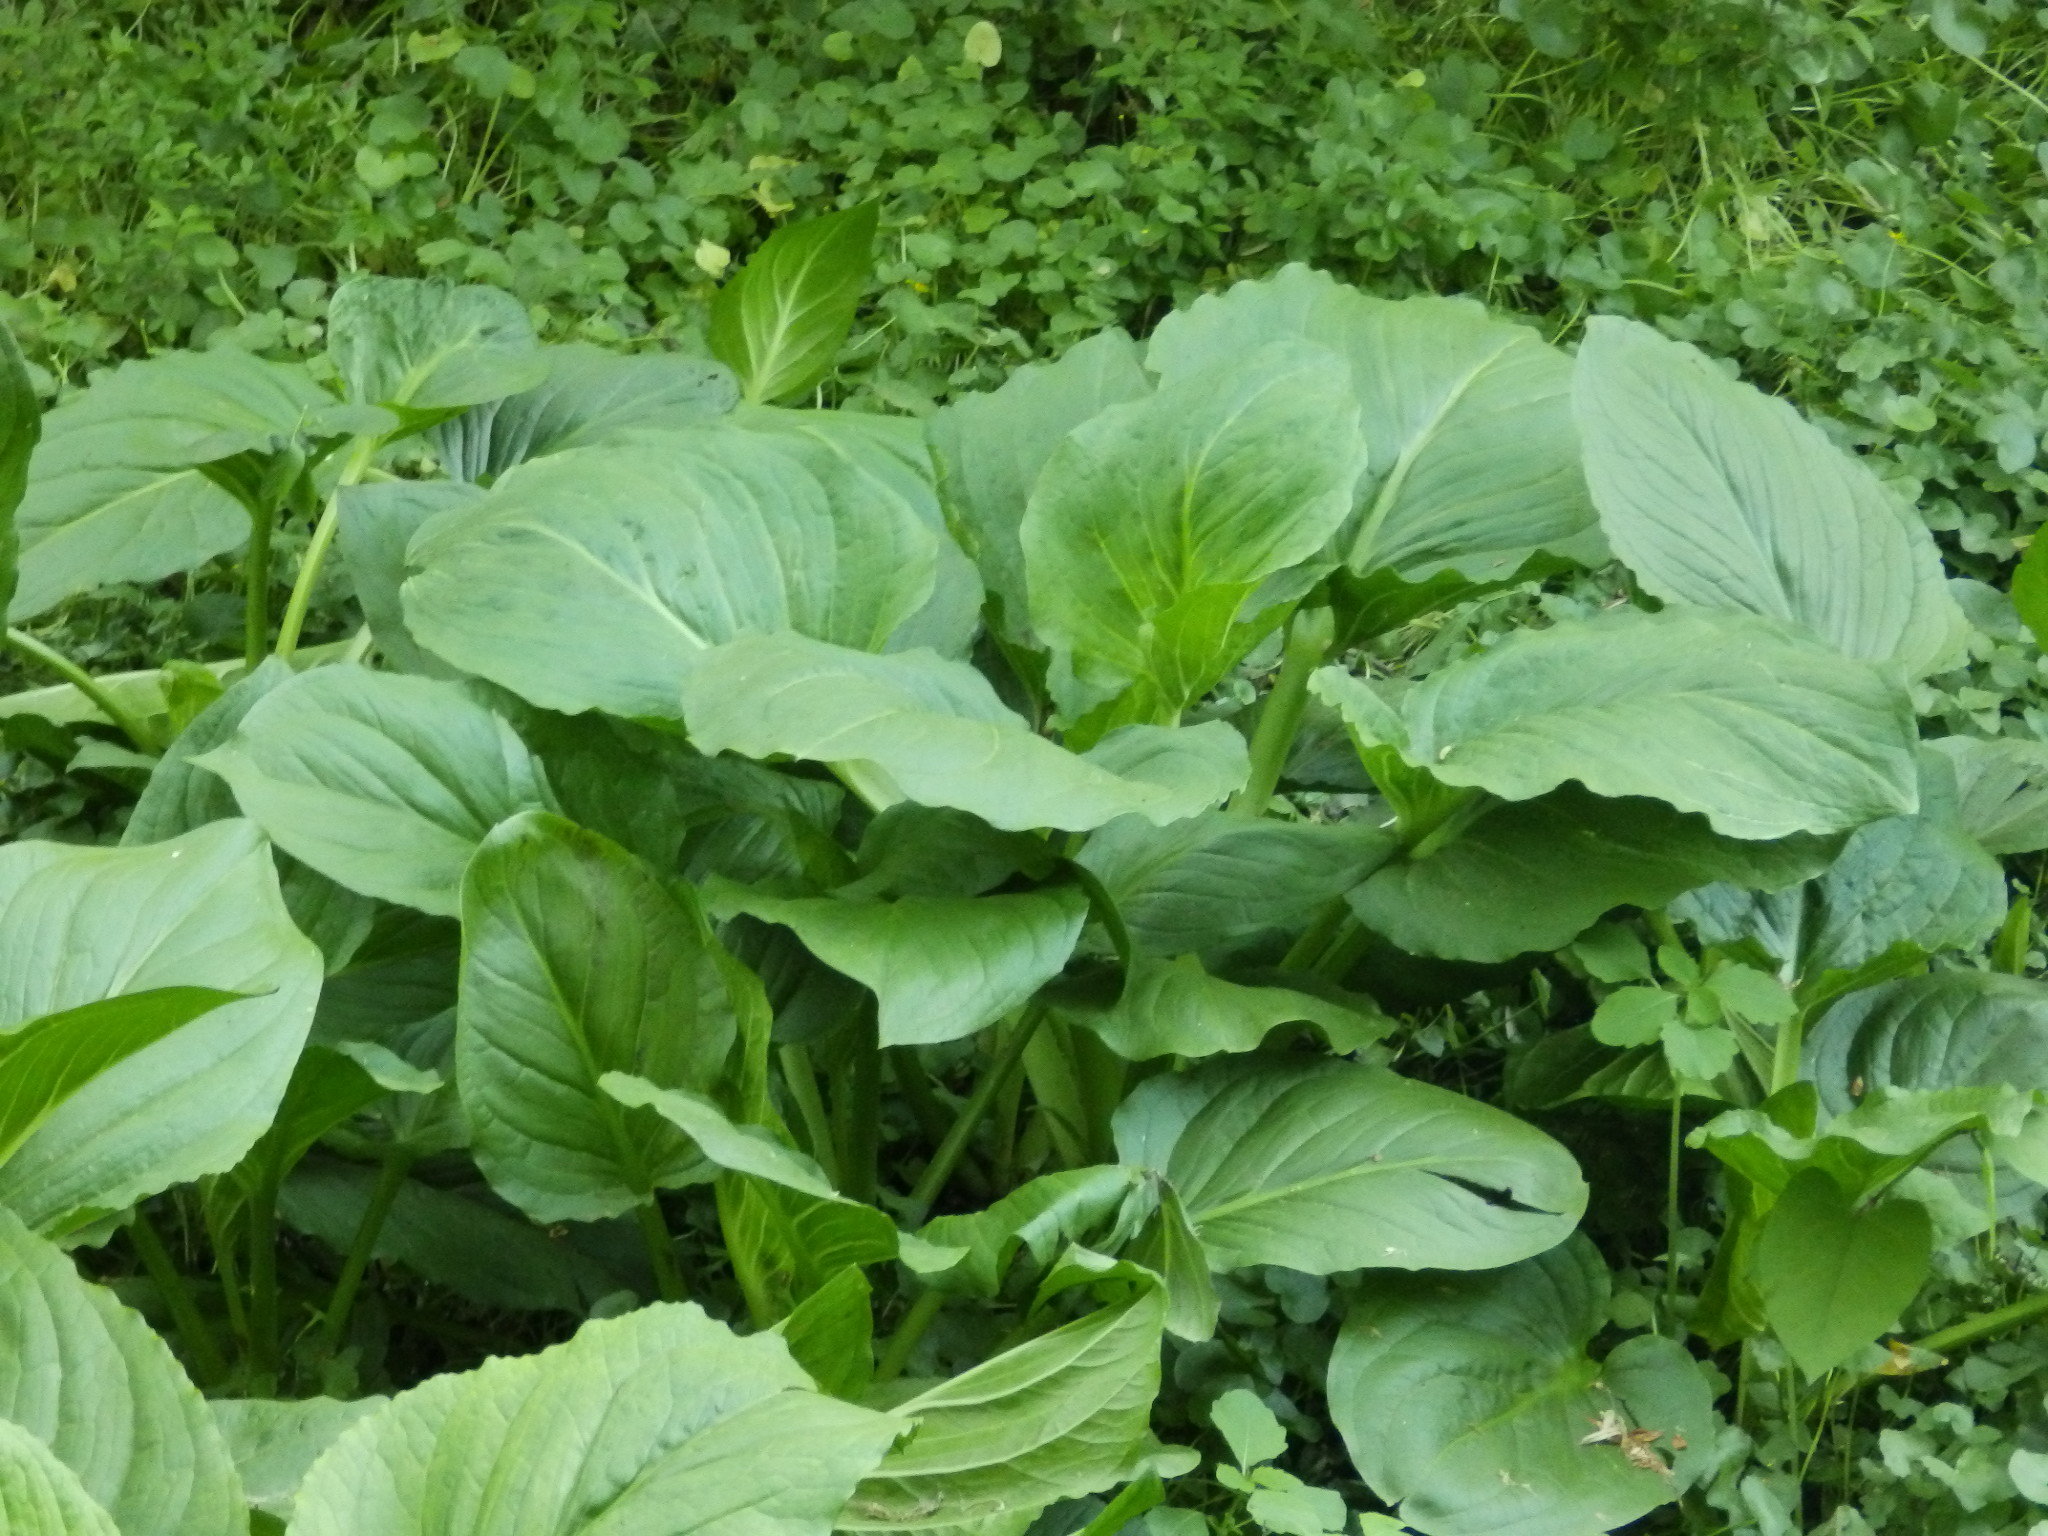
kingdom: Plantae
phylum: Tracheophyta
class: Liliopsida
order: Alismatales
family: Araceae
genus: Symplocarpus
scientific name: Symplocarpus foetidus
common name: Eastern skunk cabbage
